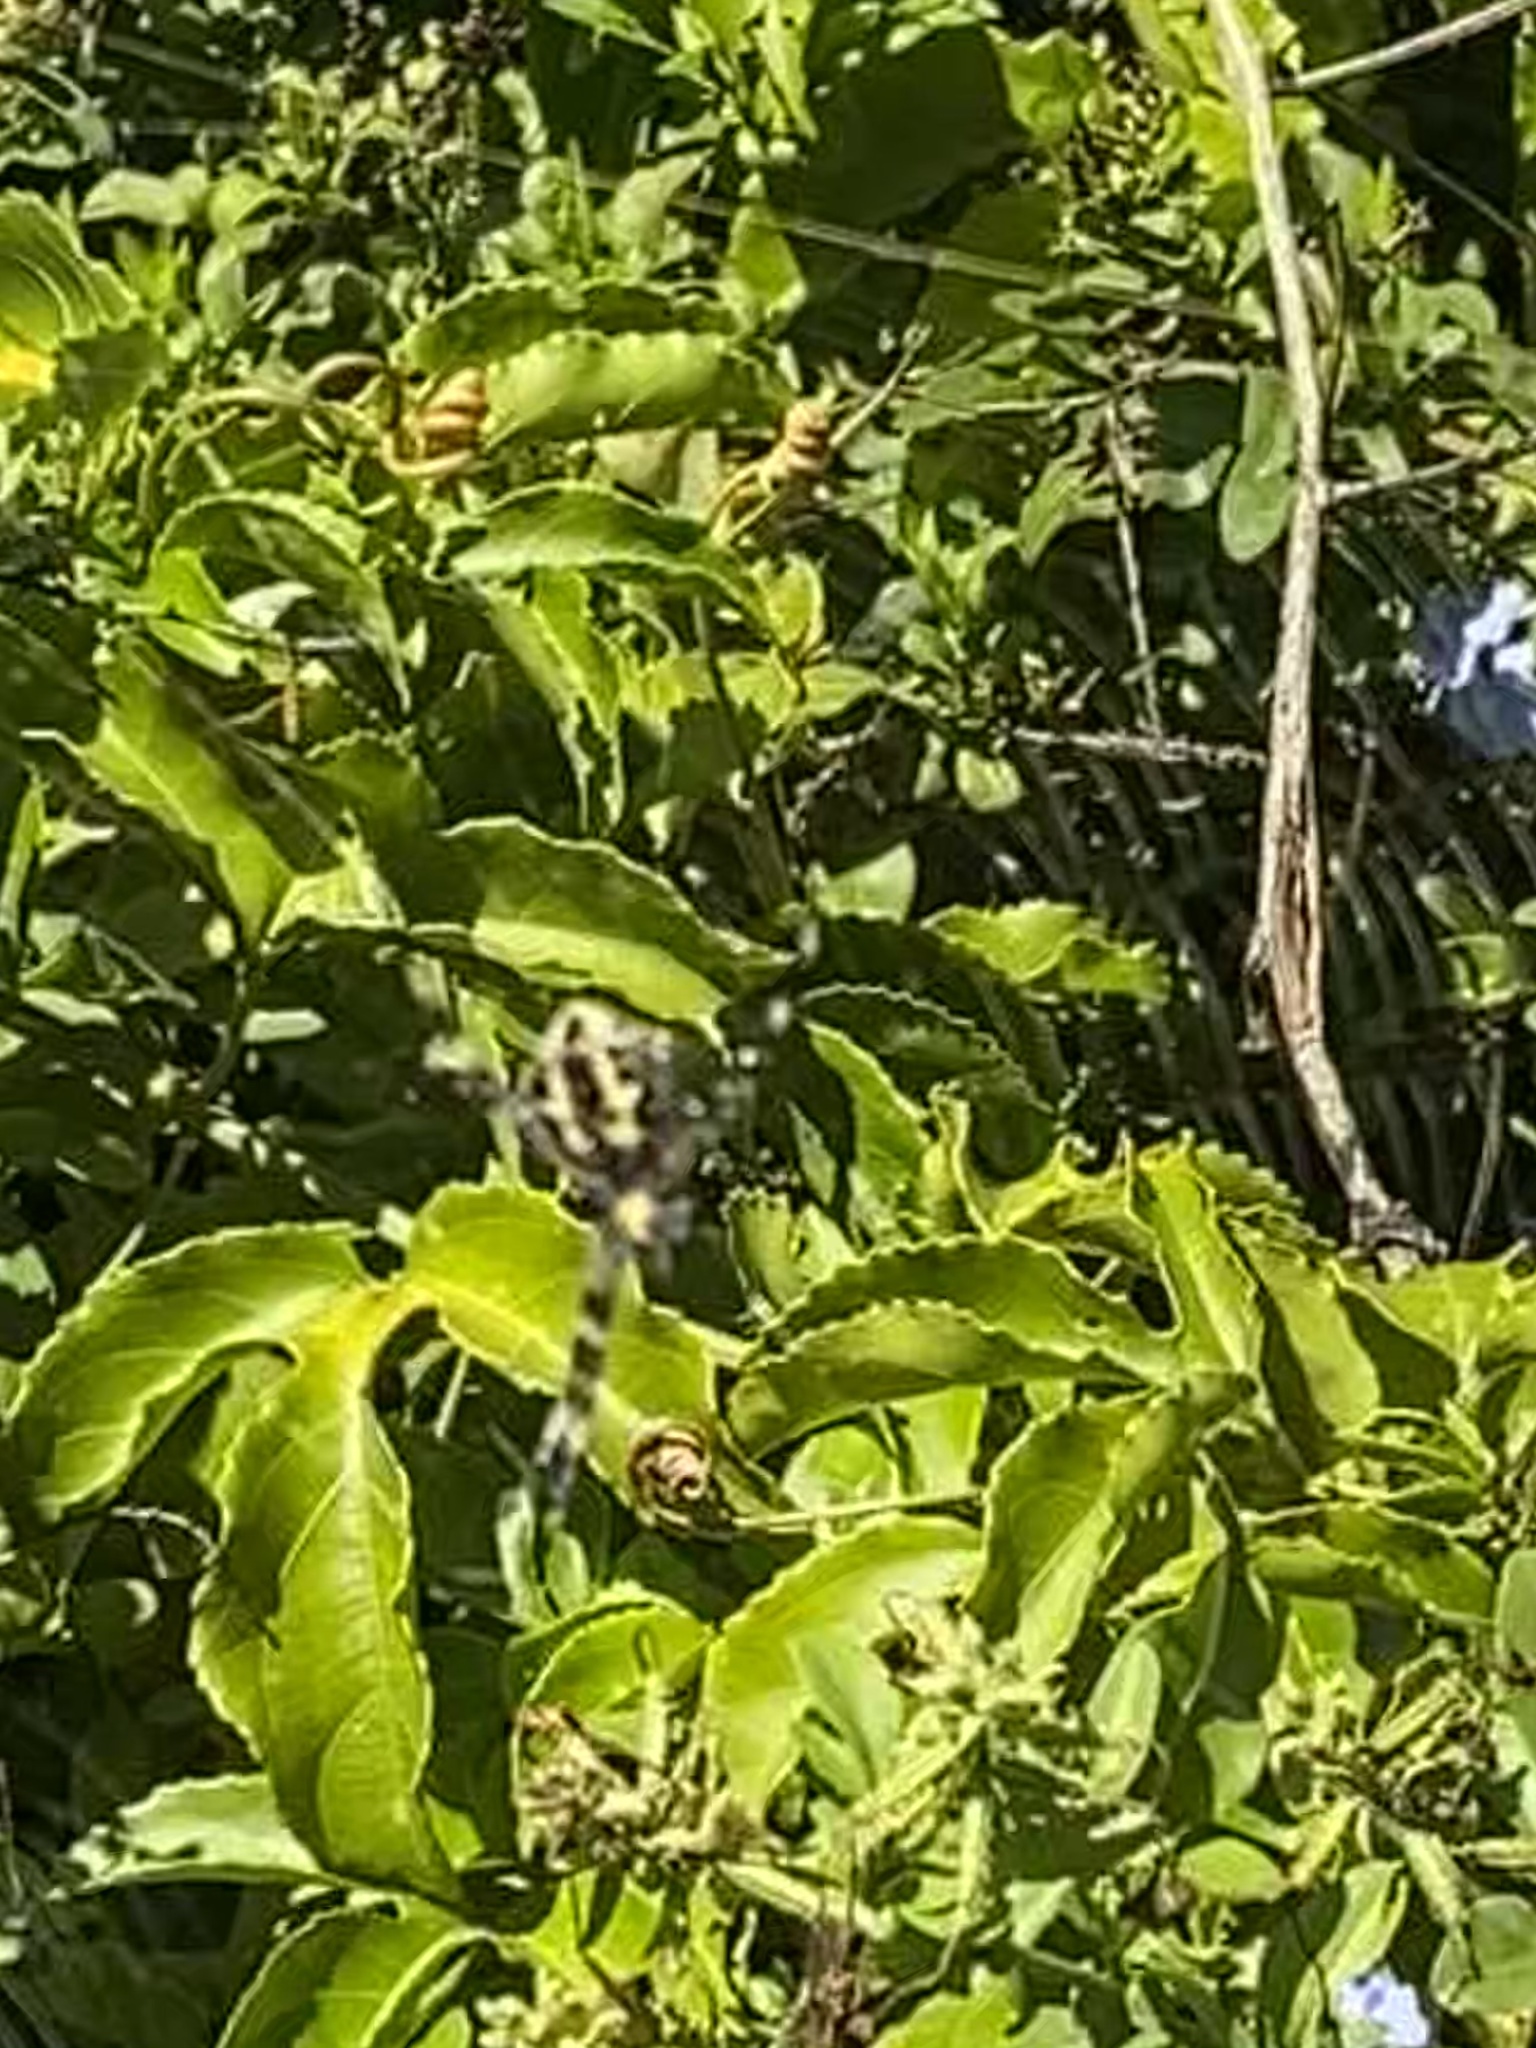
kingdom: Animalia
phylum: Arthropoda
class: Arachnida
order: Araneae
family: Araneidae
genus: Argiope
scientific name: Argiope appensa
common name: Garden spider
